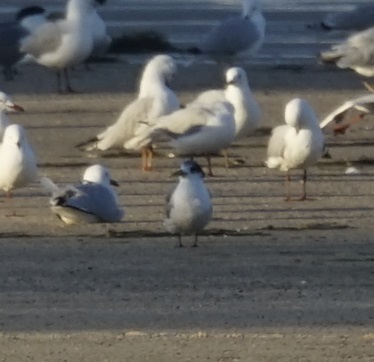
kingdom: Animalia
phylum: Chordata
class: Aves
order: Charadriiformes
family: Laridae
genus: Thalasseus
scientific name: Thalasseus bergii
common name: Greater crested tern
